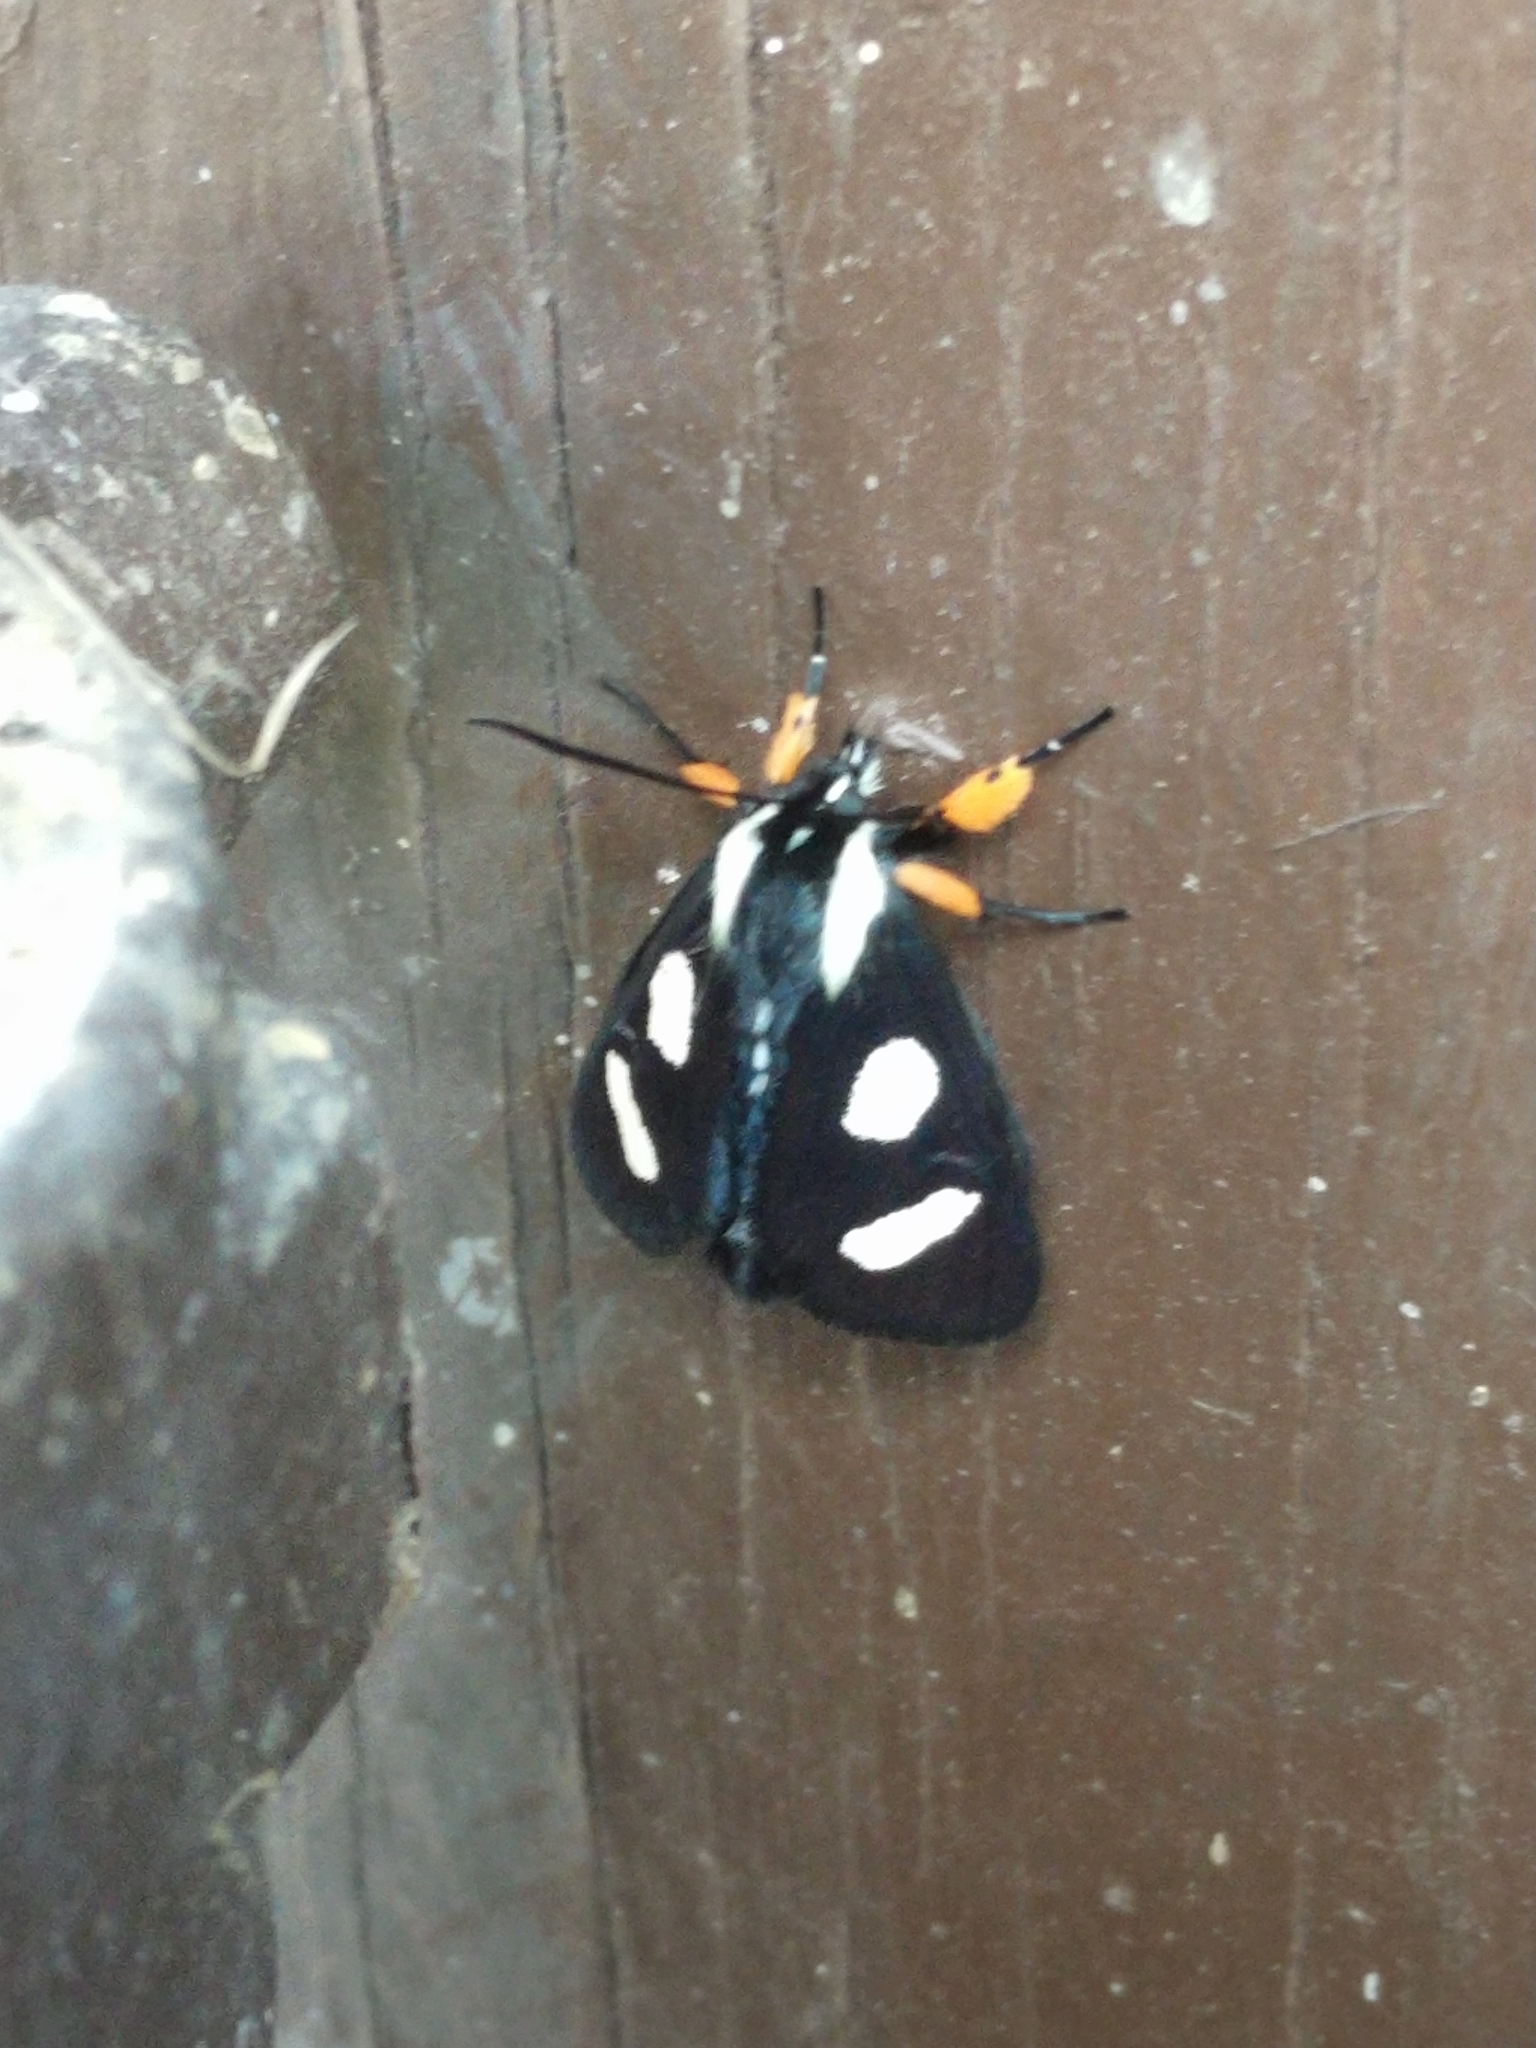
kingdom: Animalia
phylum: Arthropoda
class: Insecta
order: Lepidoptera
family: Noctuidae
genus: Alypia
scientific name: Alypia octomaculata
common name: Eight-spotted forester
